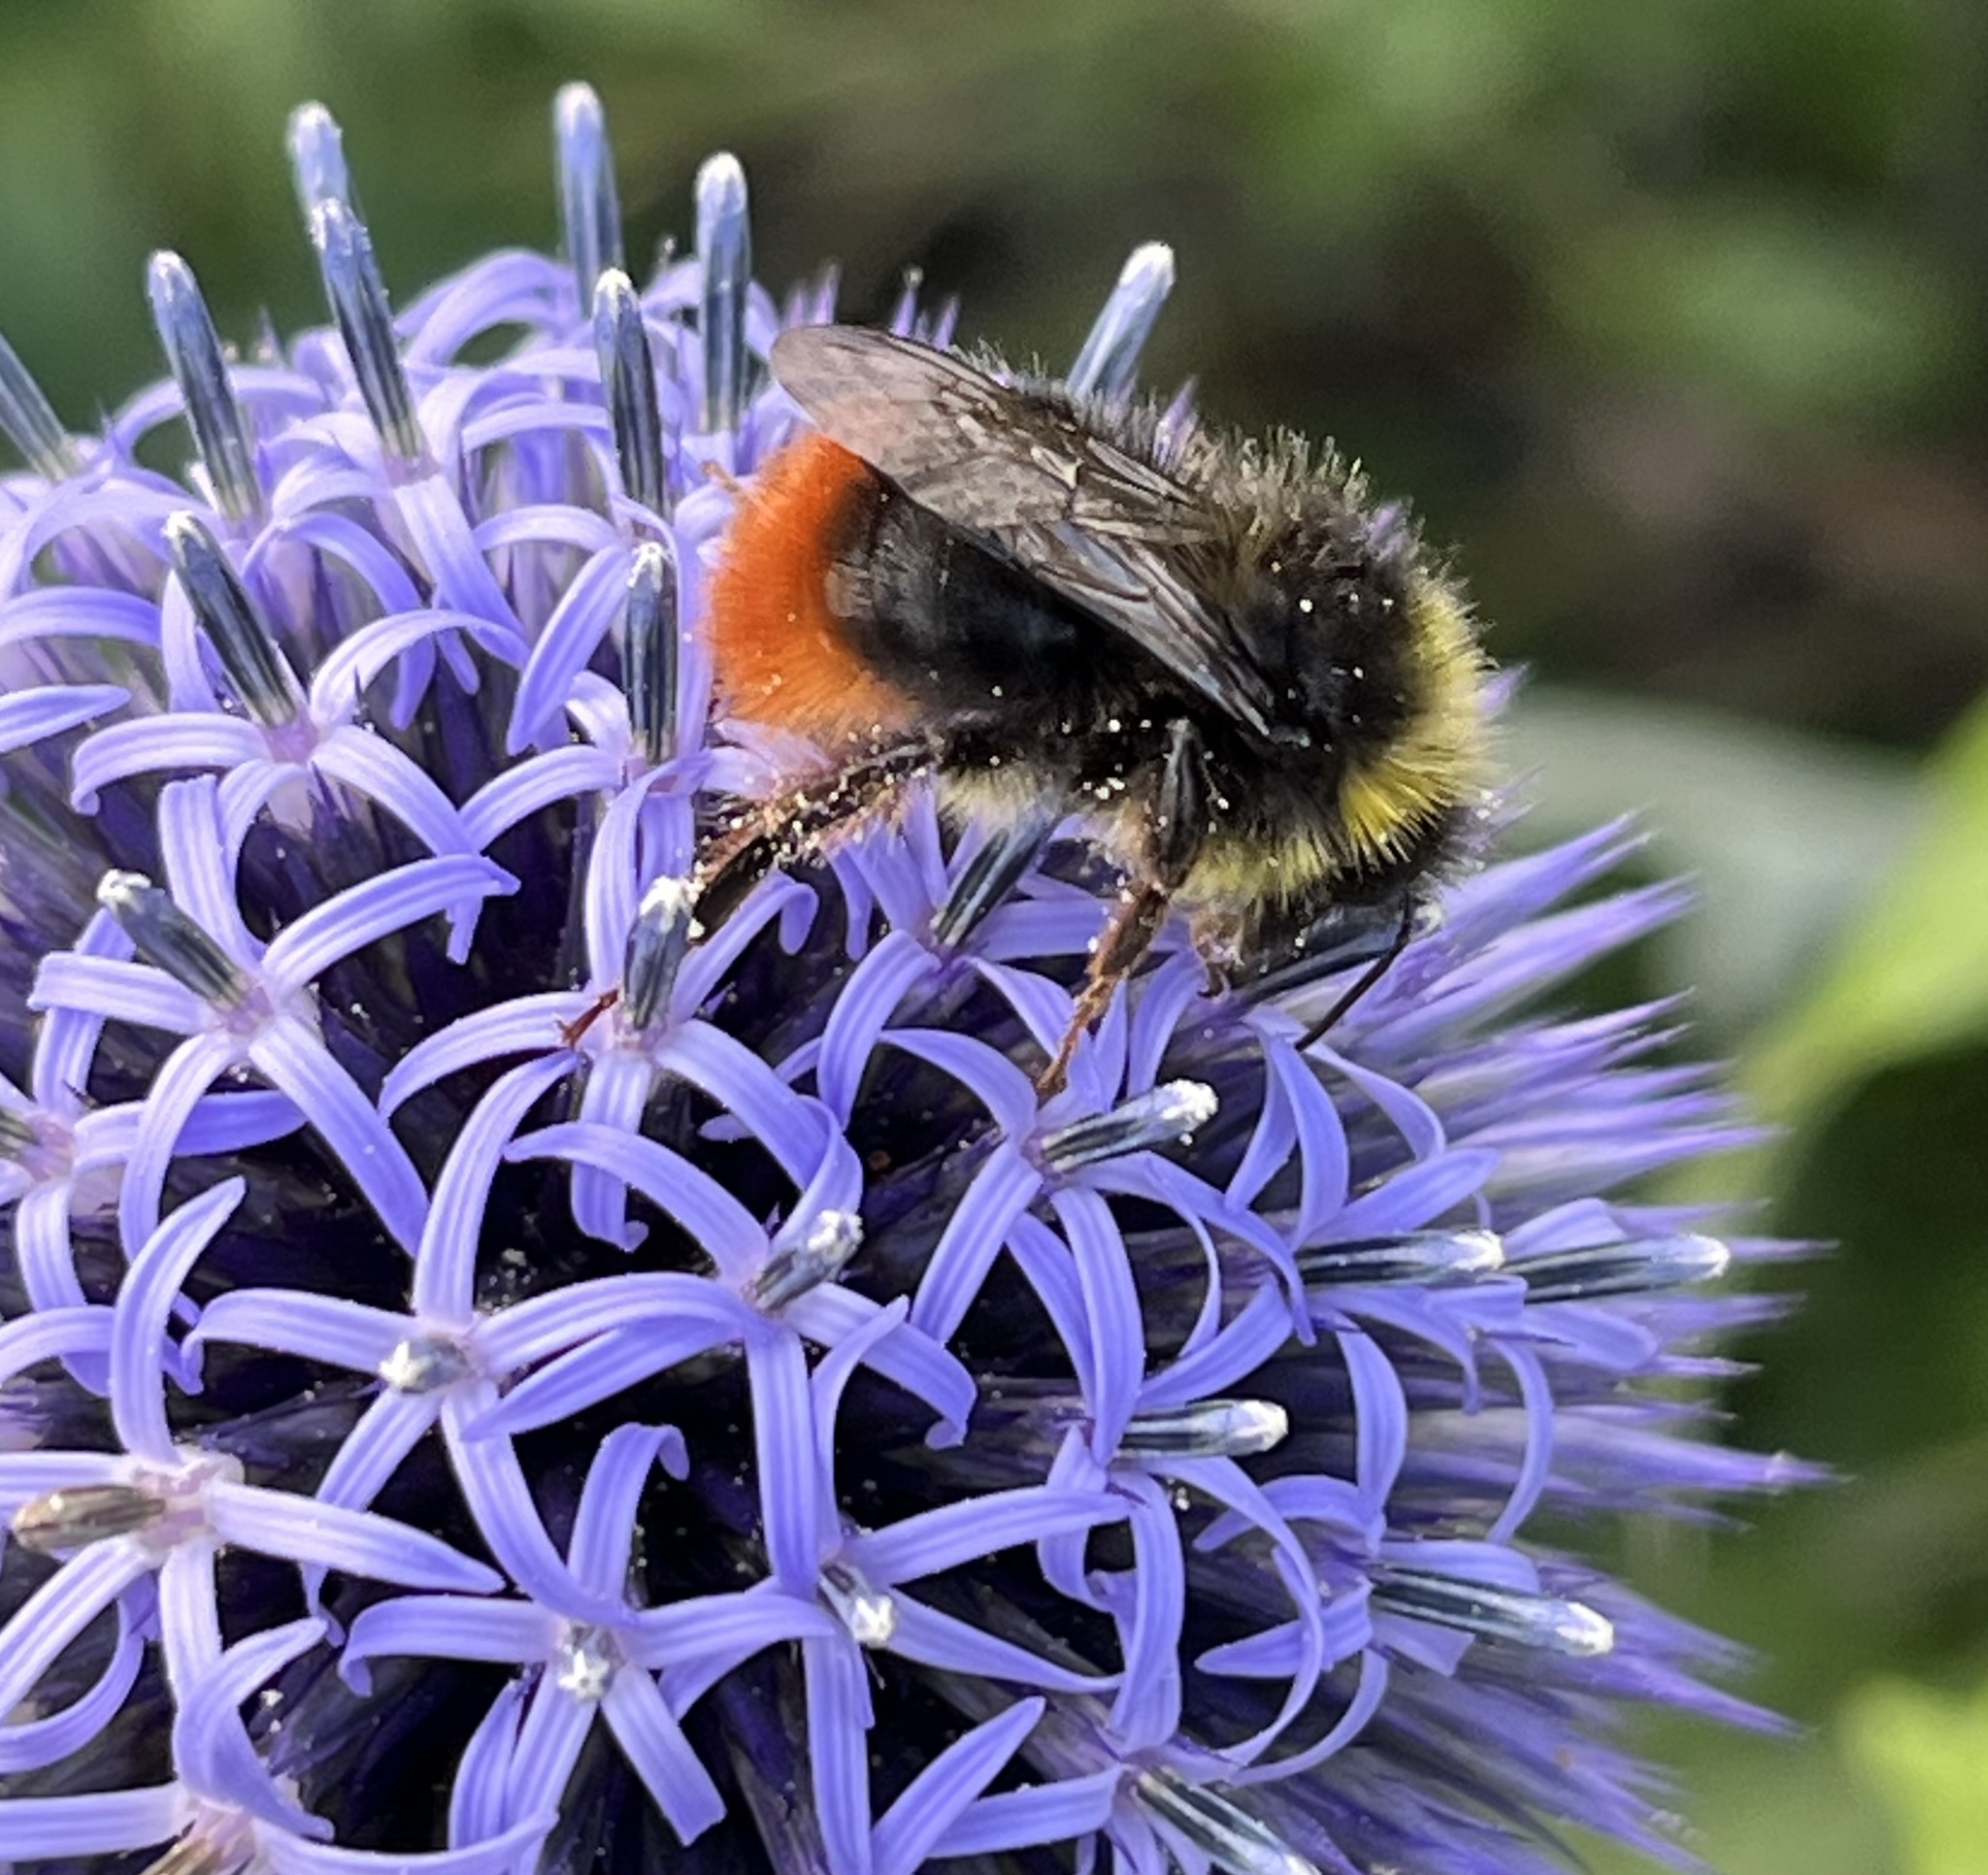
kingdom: Animalia
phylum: Arthropoda
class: Insecta
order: Hymenoptera
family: Apidae
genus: Bombus
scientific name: Bombus lapidarius
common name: Large red-tailed humble-bee
